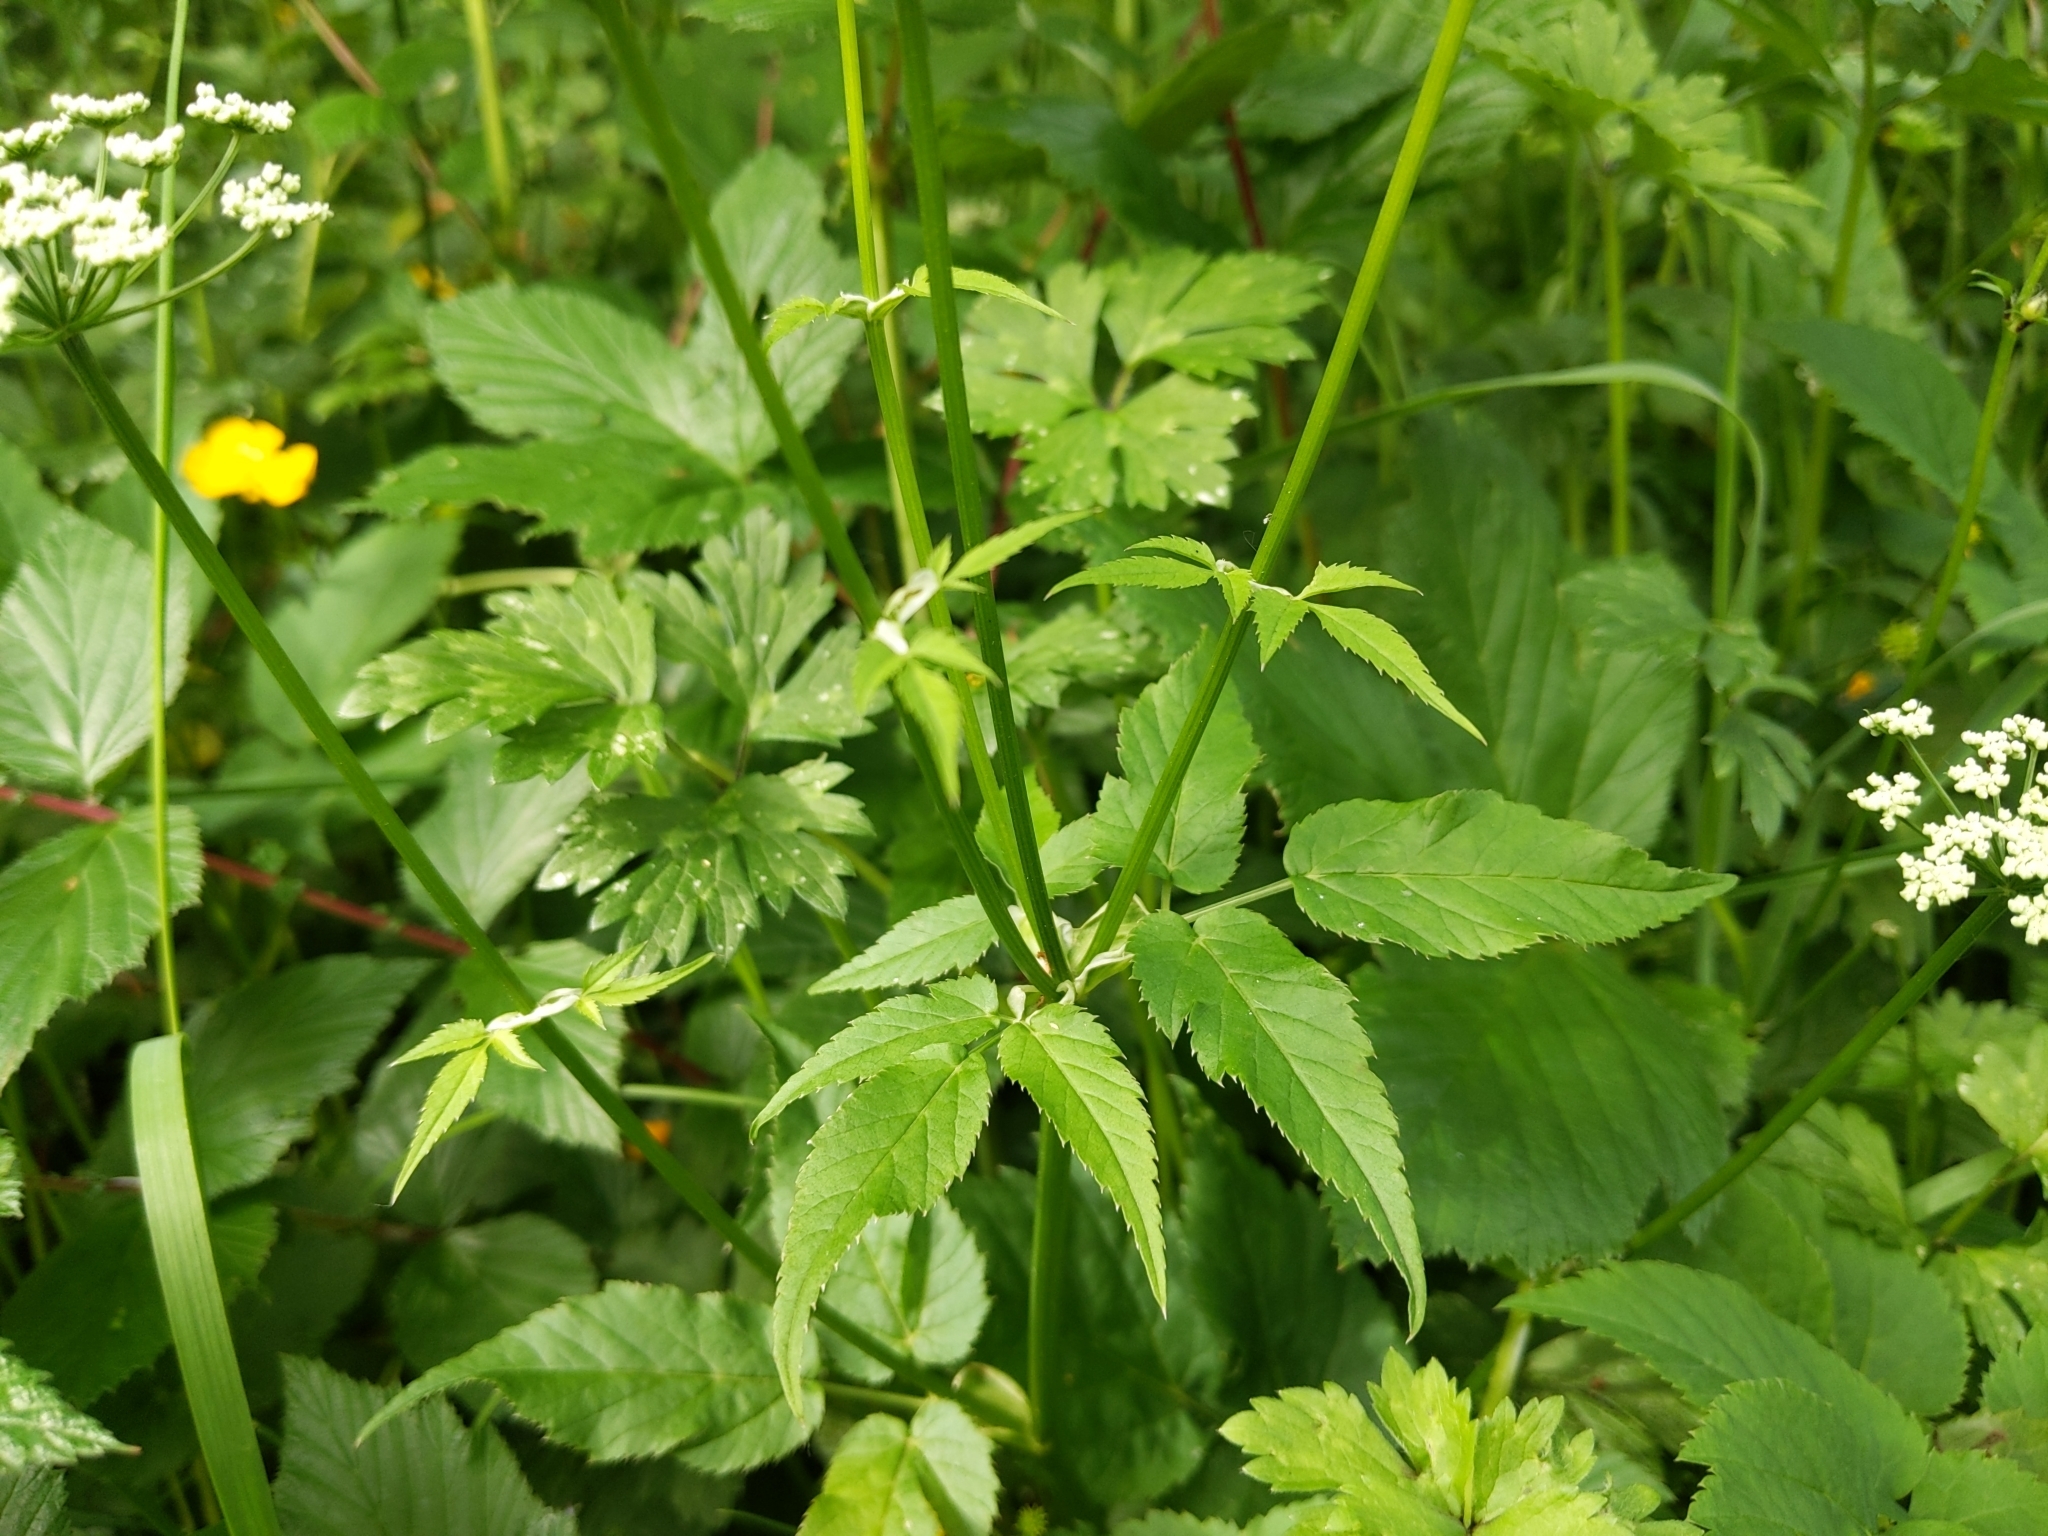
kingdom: Plantae
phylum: Tracheophyta
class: Magnoliopsida
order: Apiales
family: Apiaceae
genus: Aegopodium
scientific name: Aegopodium podagraria
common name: Ground-elder
